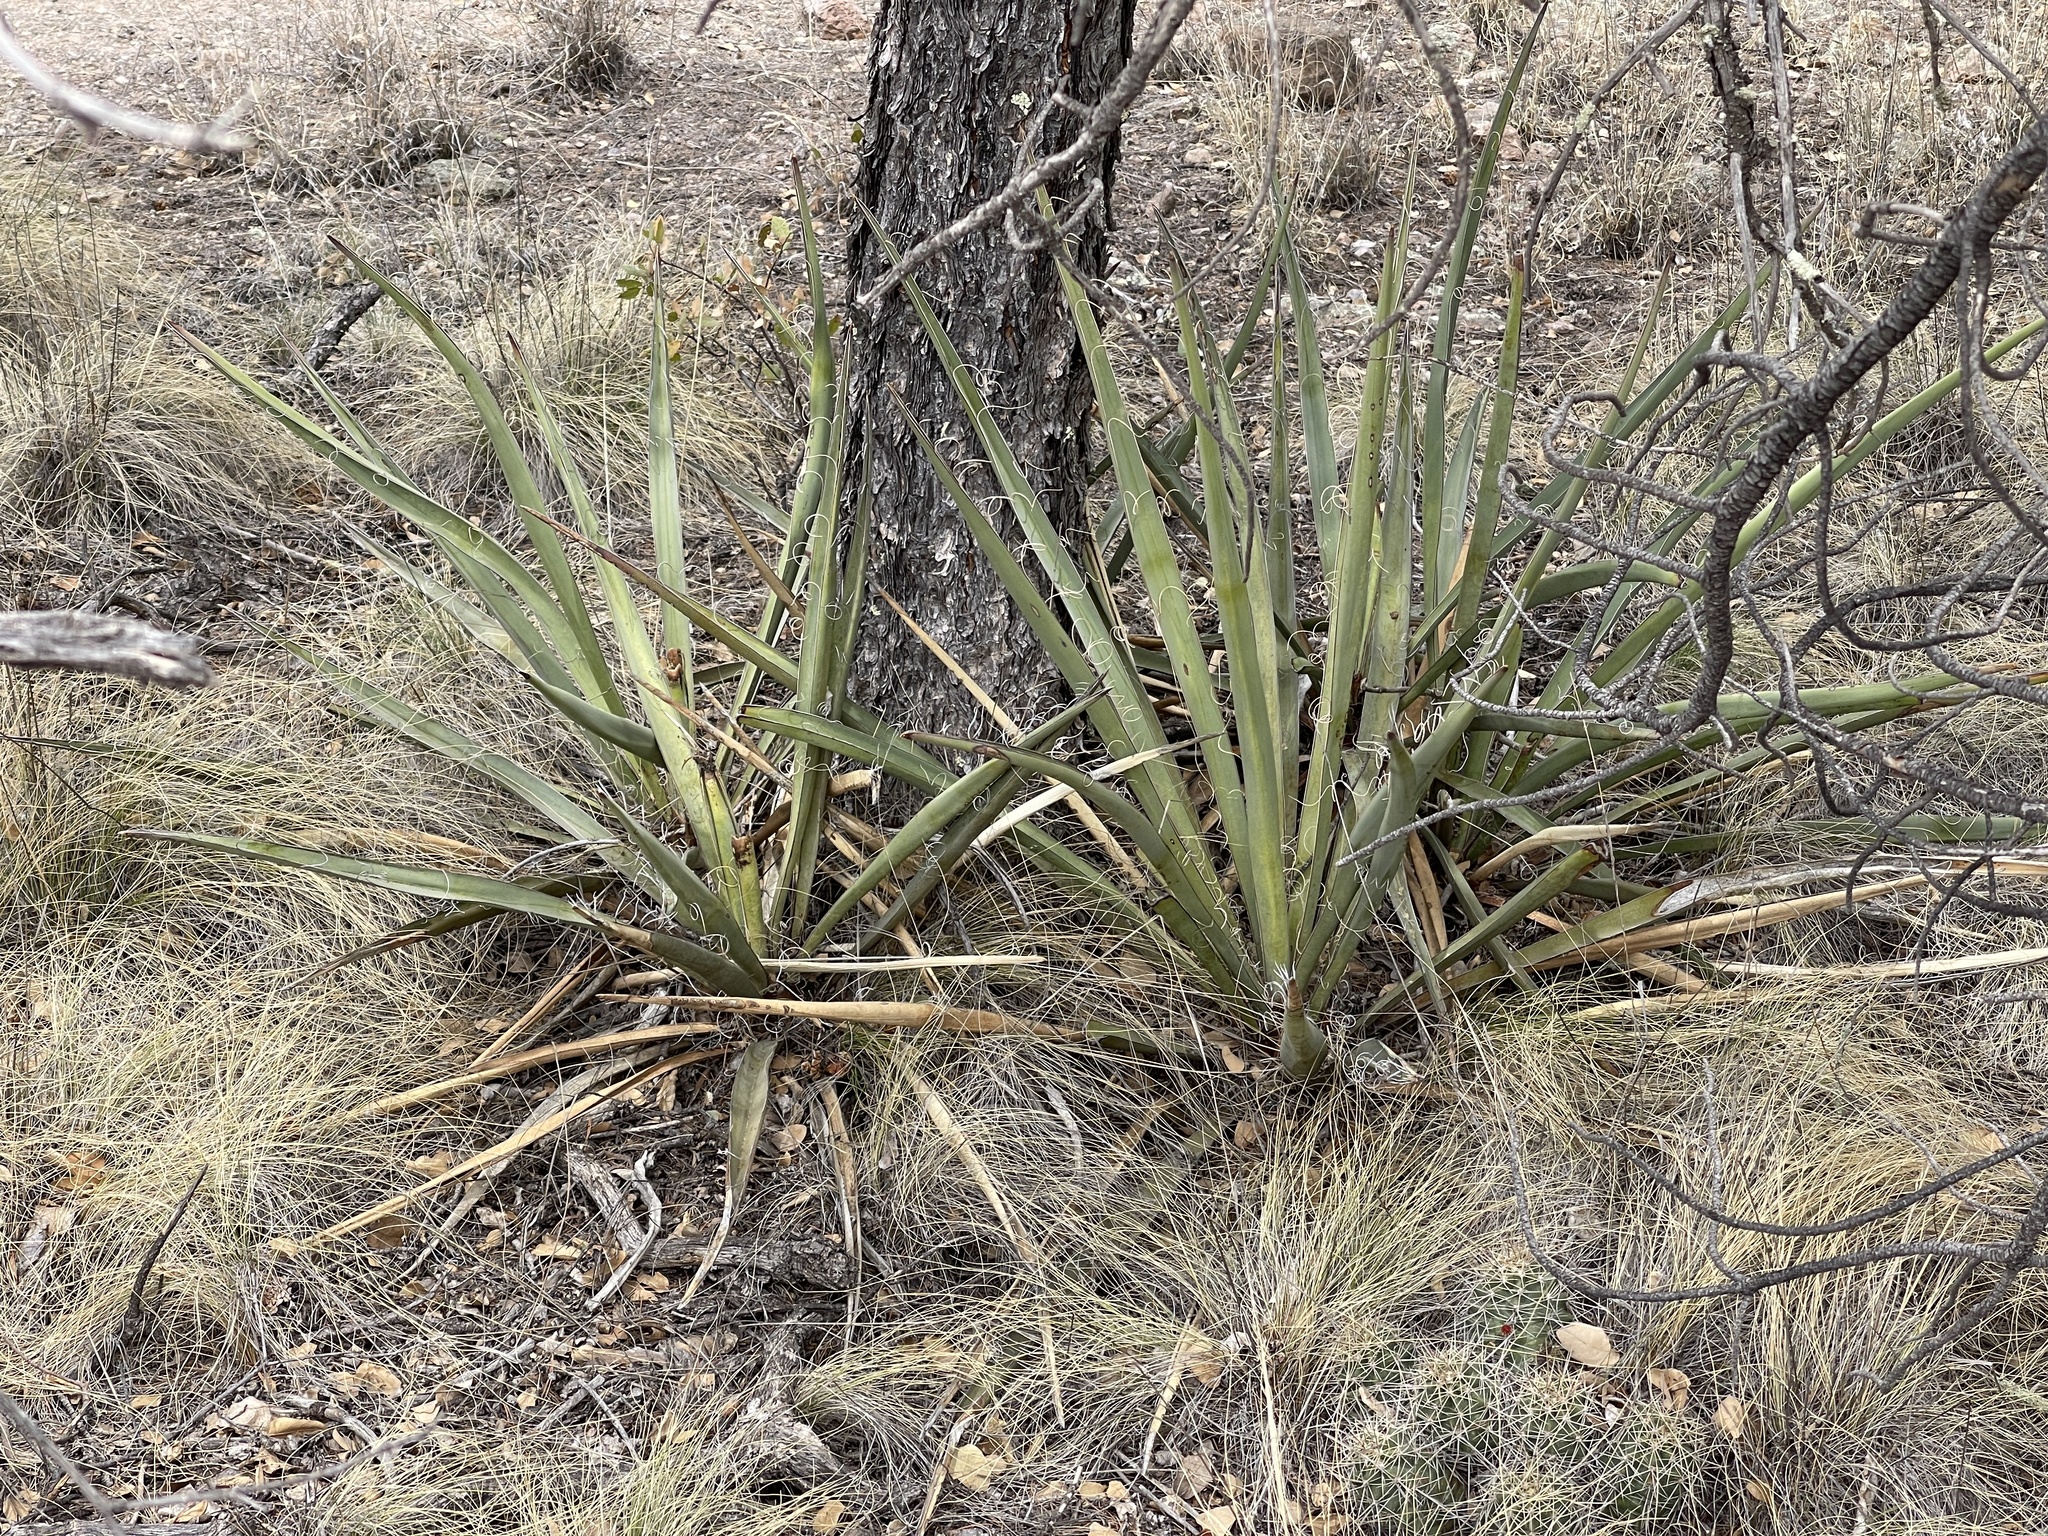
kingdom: Plantae
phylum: Tracheophyta
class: Liliopsida
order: Asparagales
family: Asparagaceae
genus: Yucca
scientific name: Yucca baccata
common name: Banana yucca
